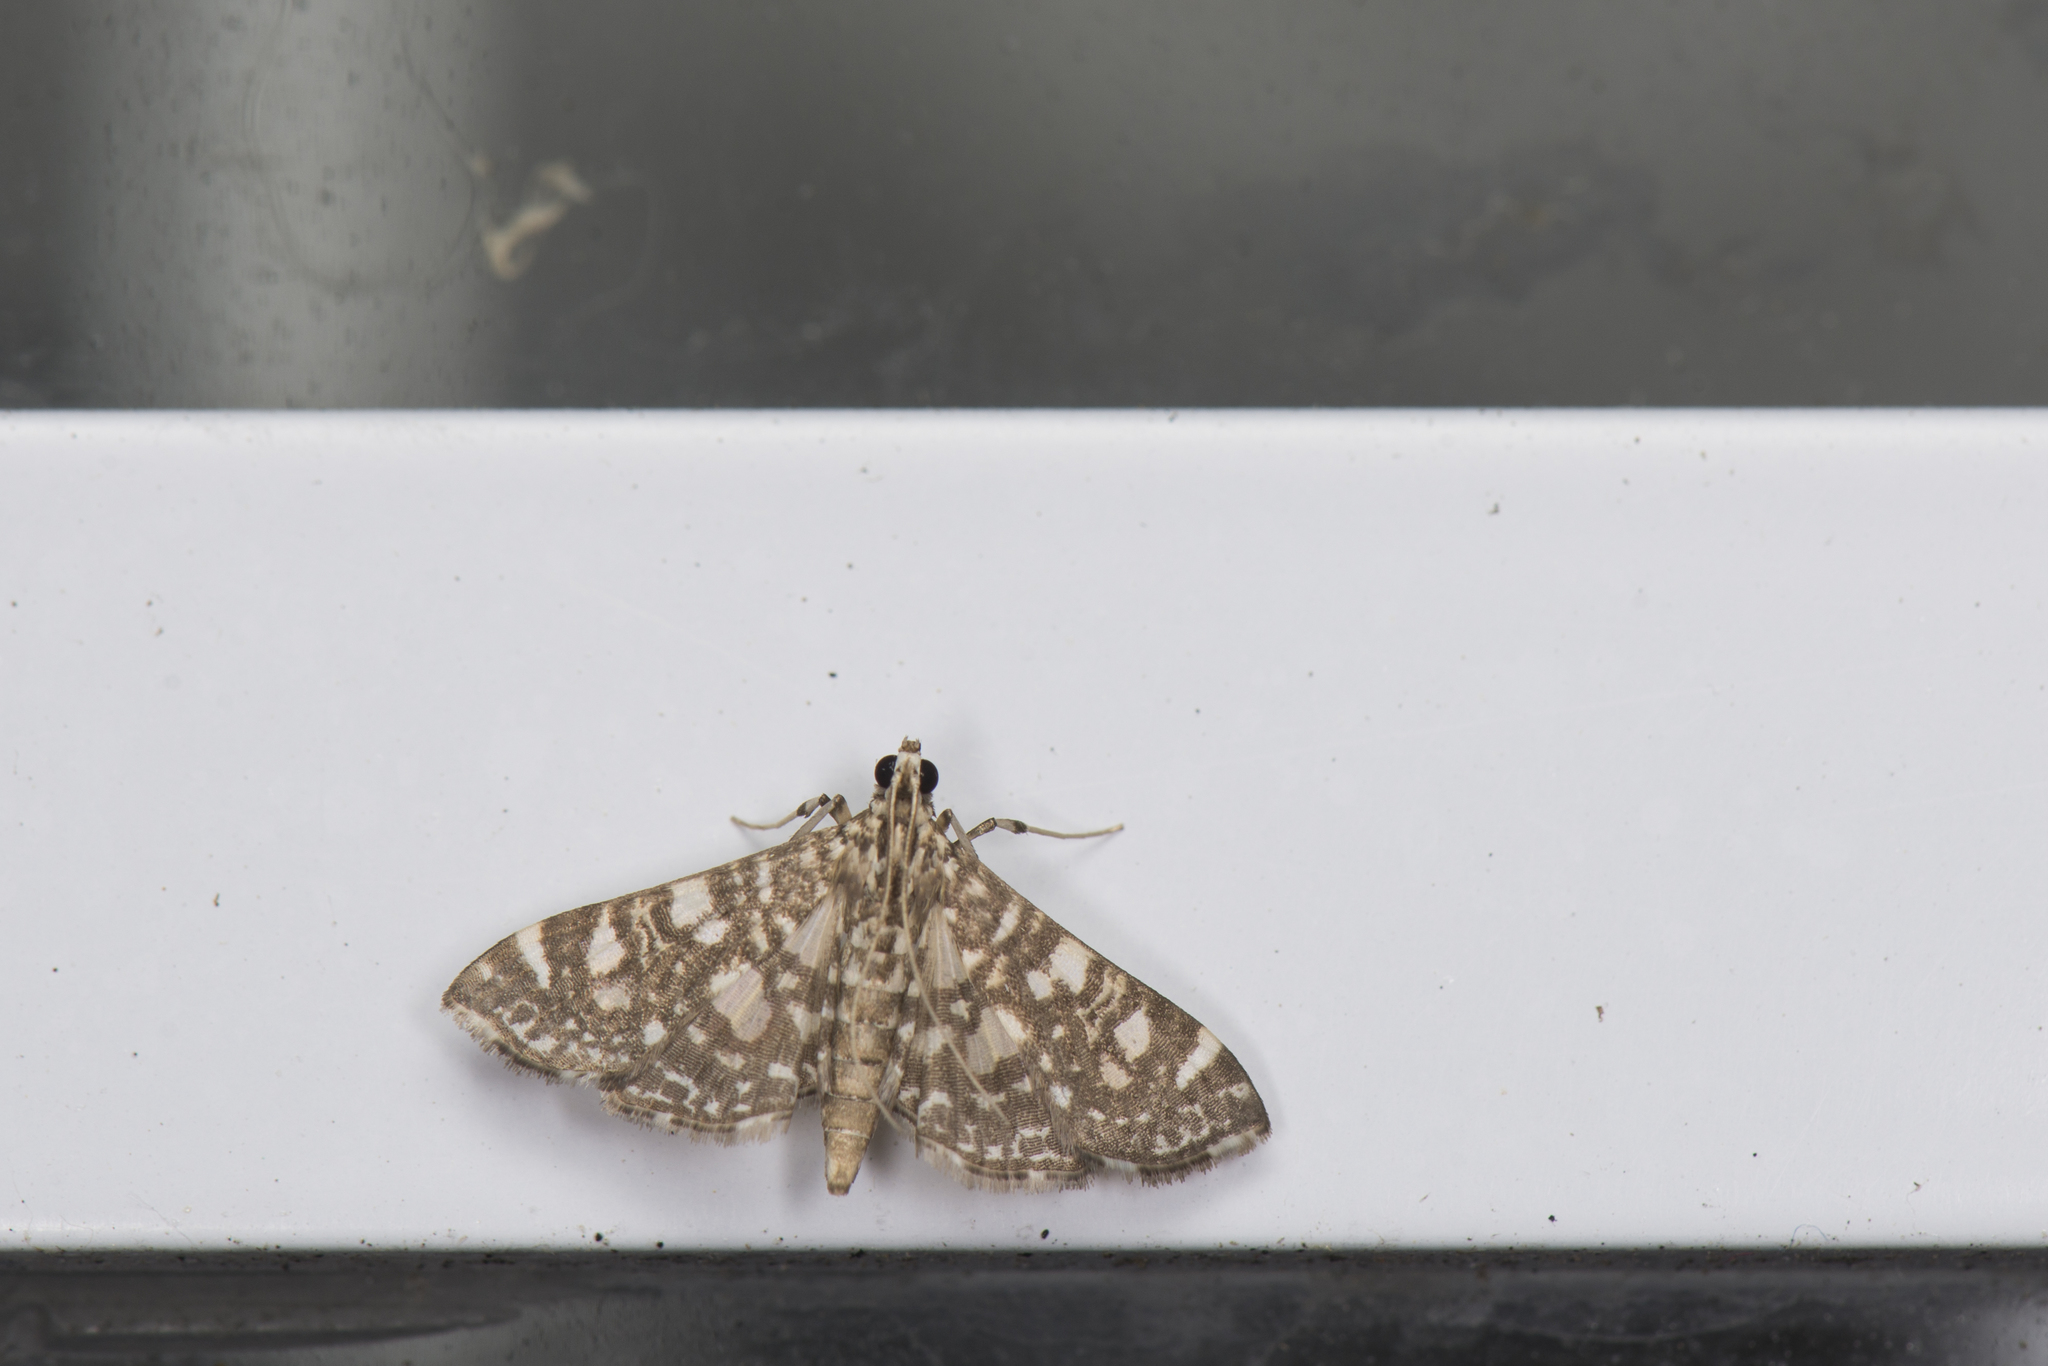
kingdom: Animalia
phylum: Arthropoda
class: Insecta
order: Lepidoptera
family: Crambidae
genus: Glyphodes
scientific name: Glyphodes onychinalis
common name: Swan plant moth
